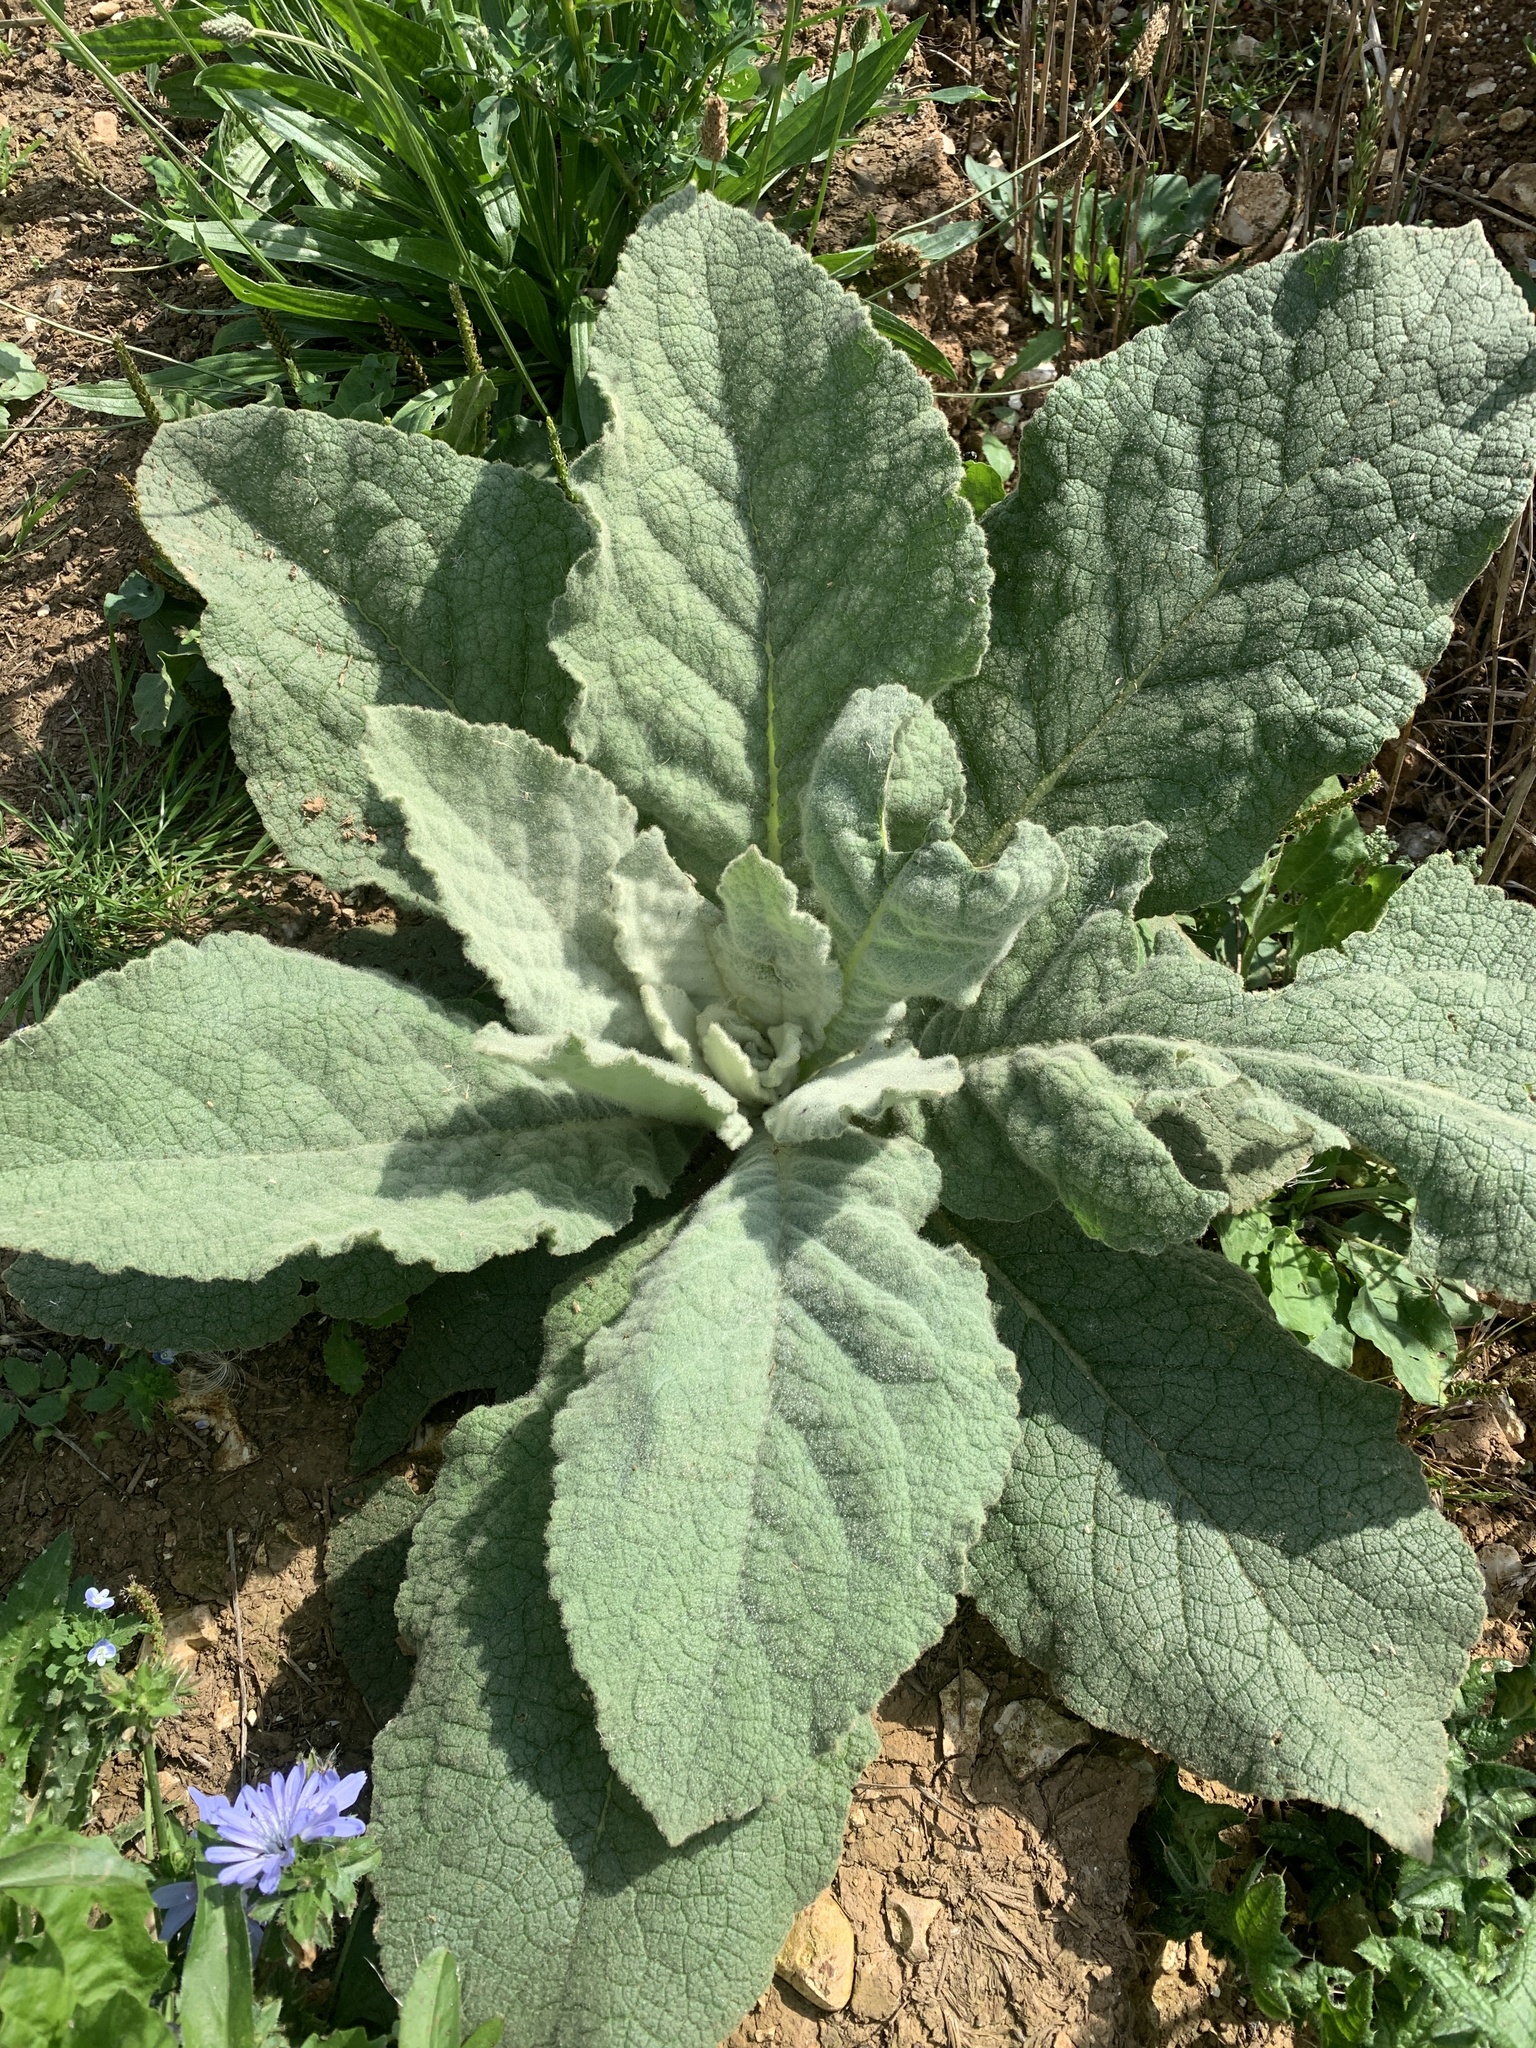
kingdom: Plantae
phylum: Tracheophyta
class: Magnoliopsida
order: Lamiales
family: Scrophulariaceae
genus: Verbascum
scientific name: Verbascum thapsus
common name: Common mullein
